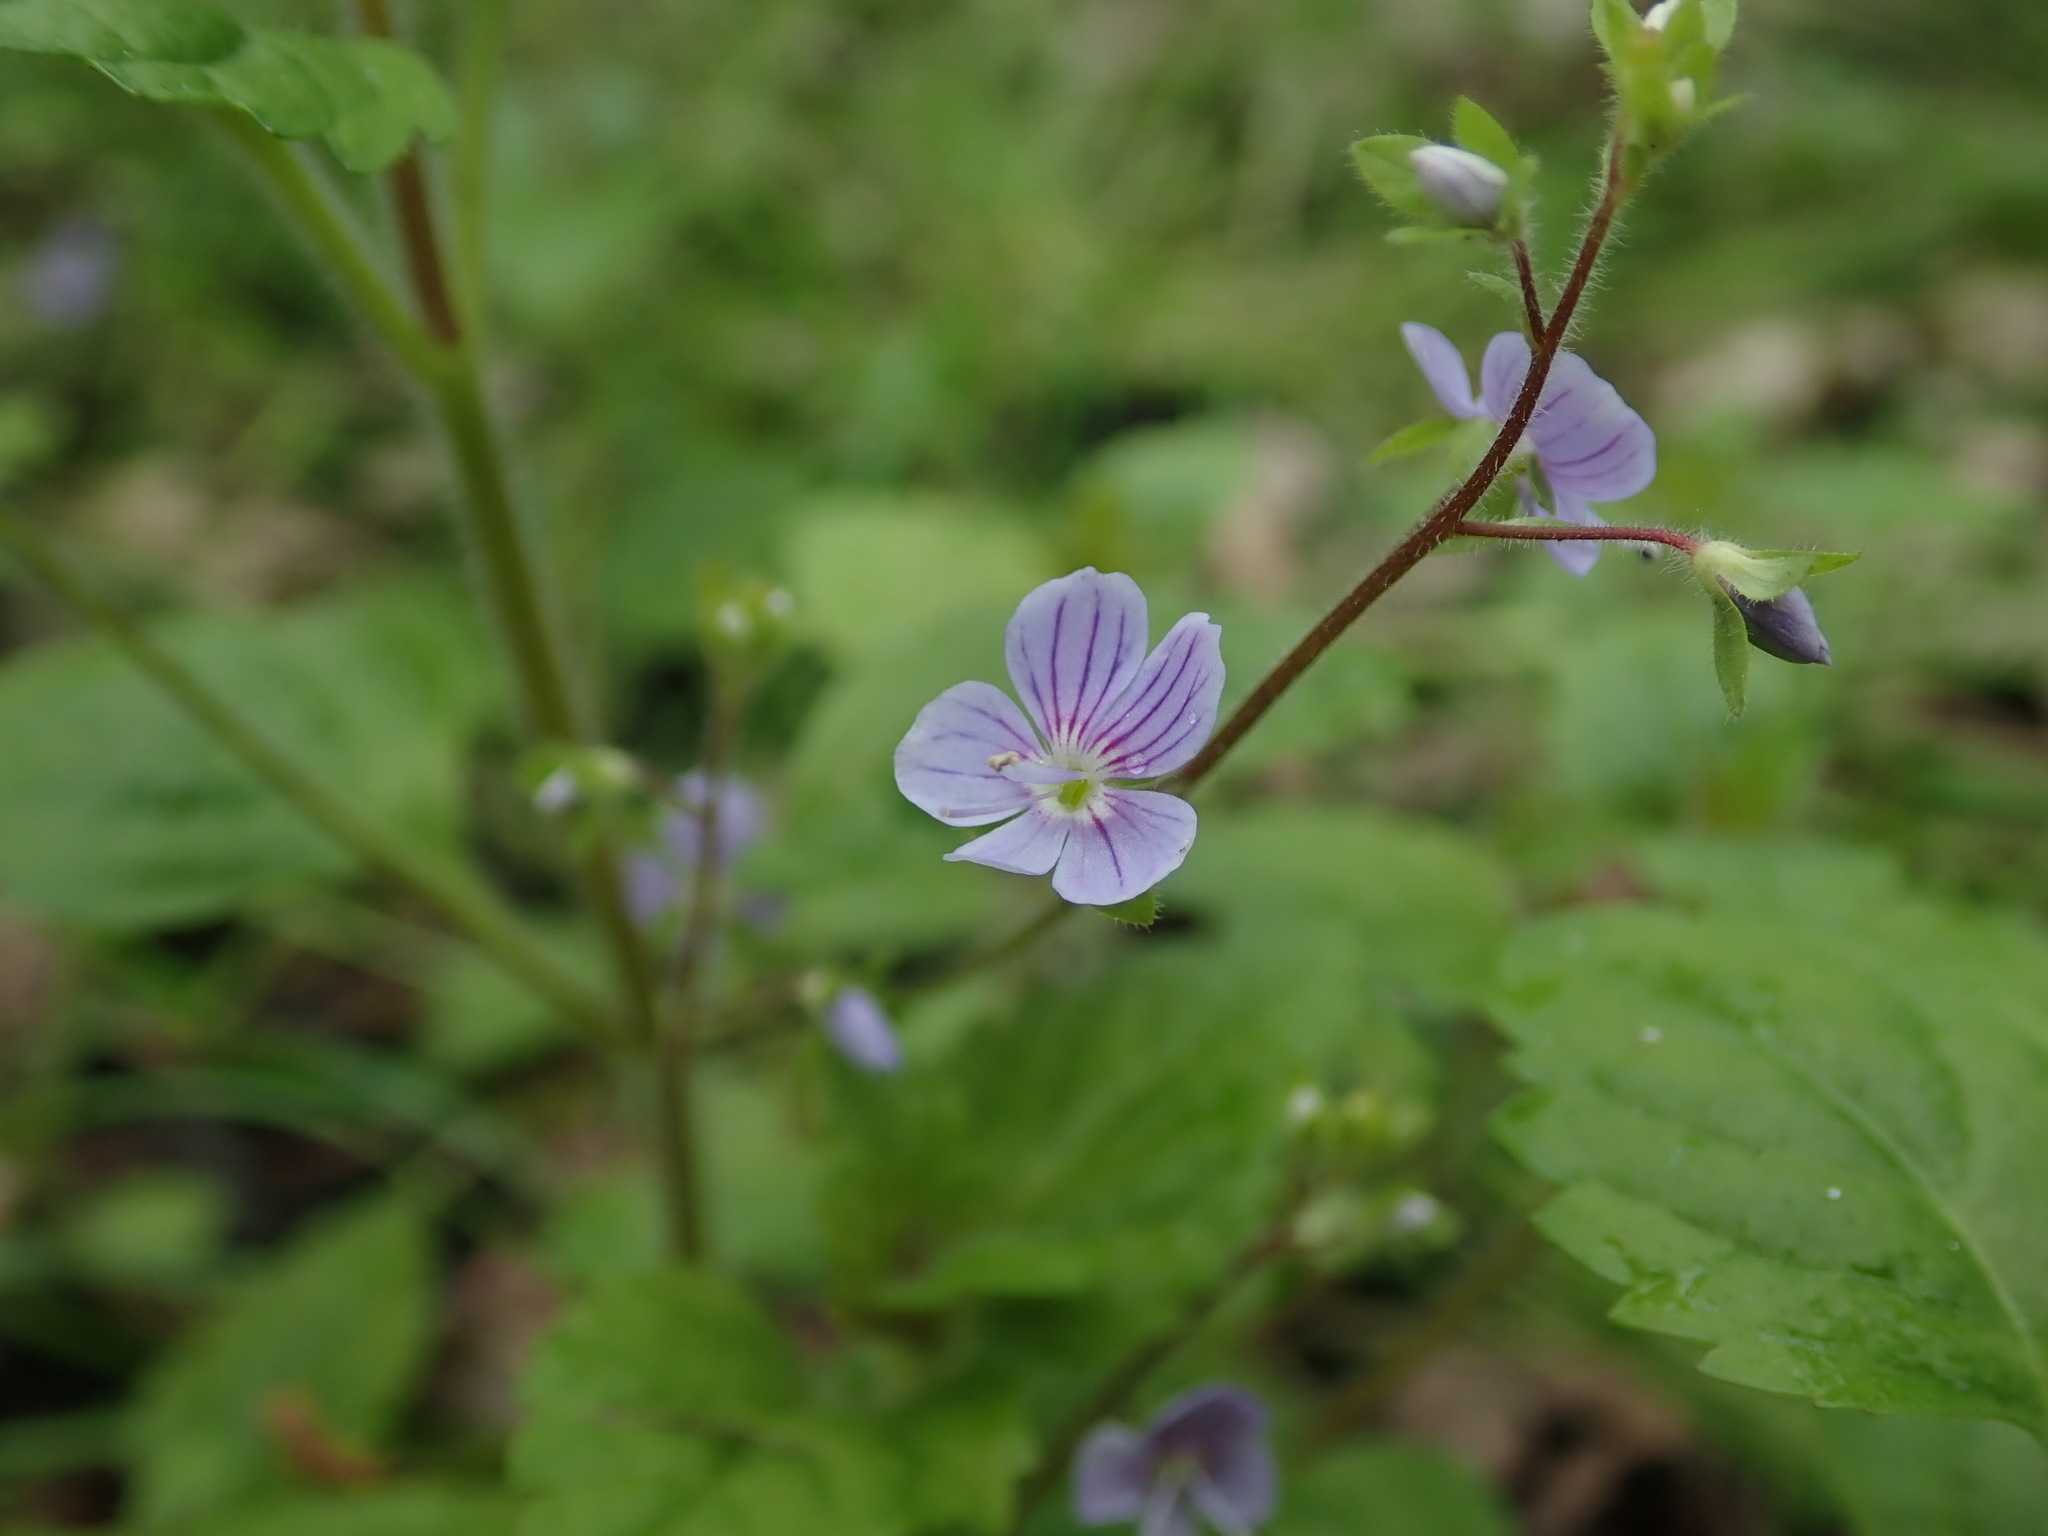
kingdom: Plantae
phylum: Tracheophyta
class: Magnoliopsida
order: Lamiales
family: Plantaginaceae
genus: Veronica
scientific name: Veronica montana
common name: Wood speedwell
